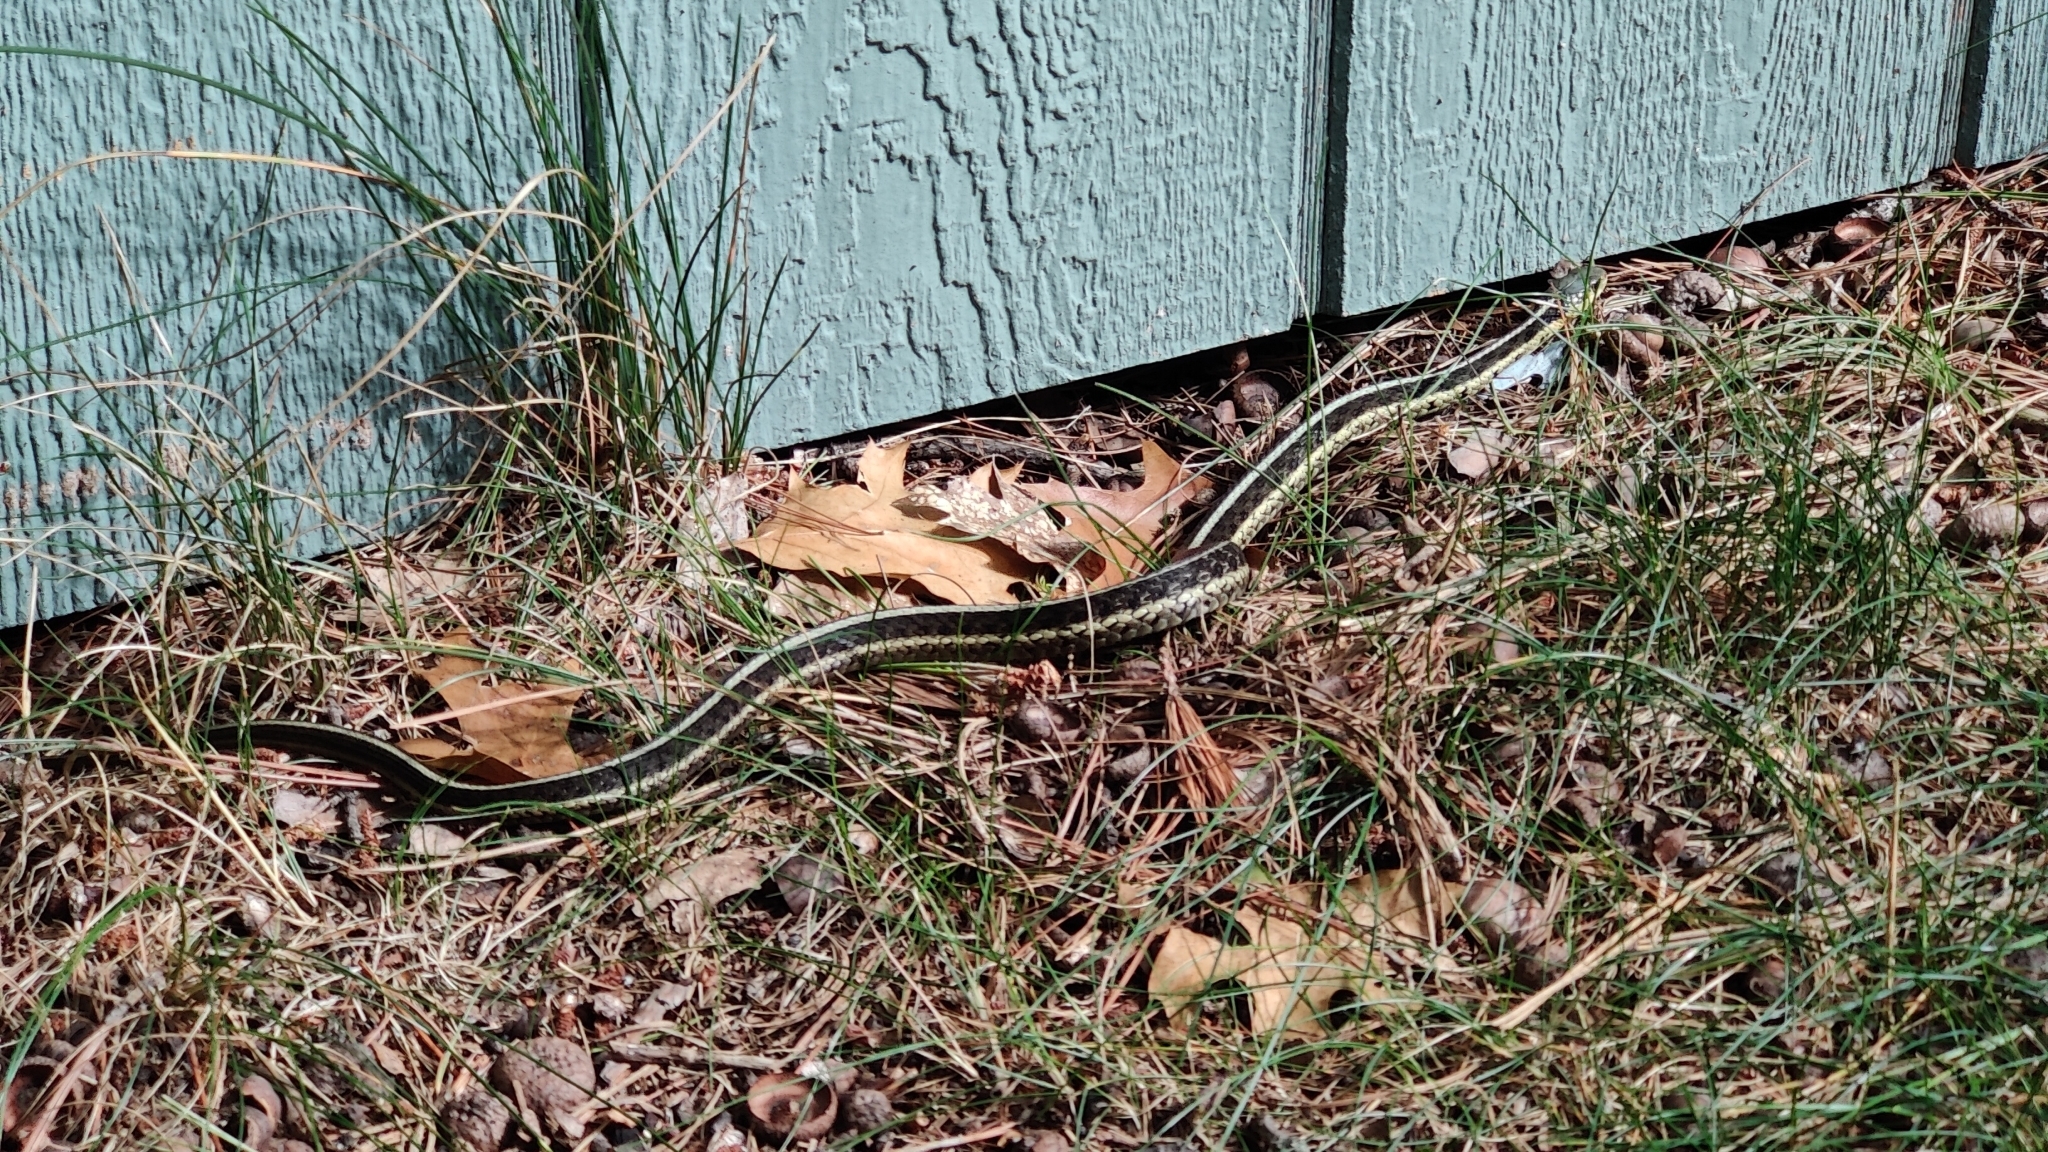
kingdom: Animalia
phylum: Chordata
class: Squamata
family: Colubridae
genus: Thamnophis
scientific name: Thamnophis sirtalis
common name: Common garter snake
